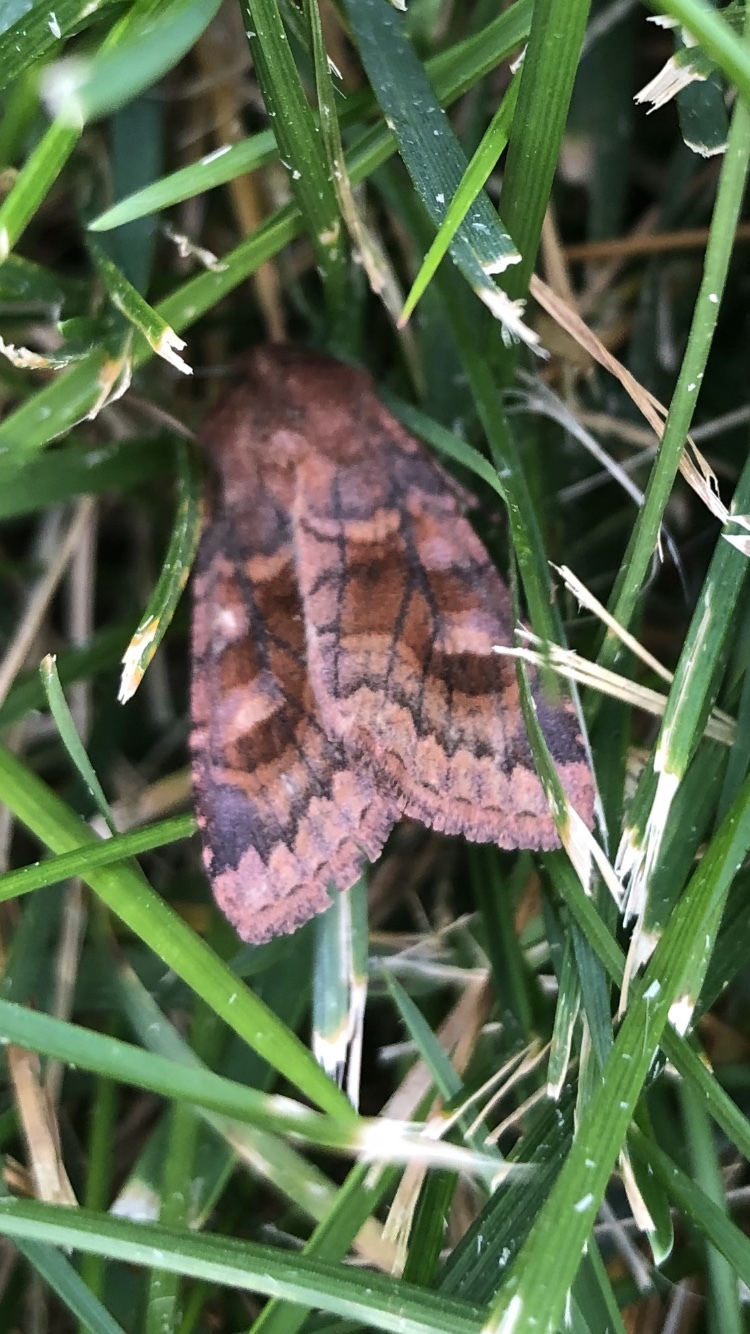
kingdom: Animalia
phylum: Arthropoda
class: Insecta
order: Lepidoptera
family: Noctuidae
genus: Nephelodes
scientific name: Nephelodes minians
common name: Bronzed cutworm
